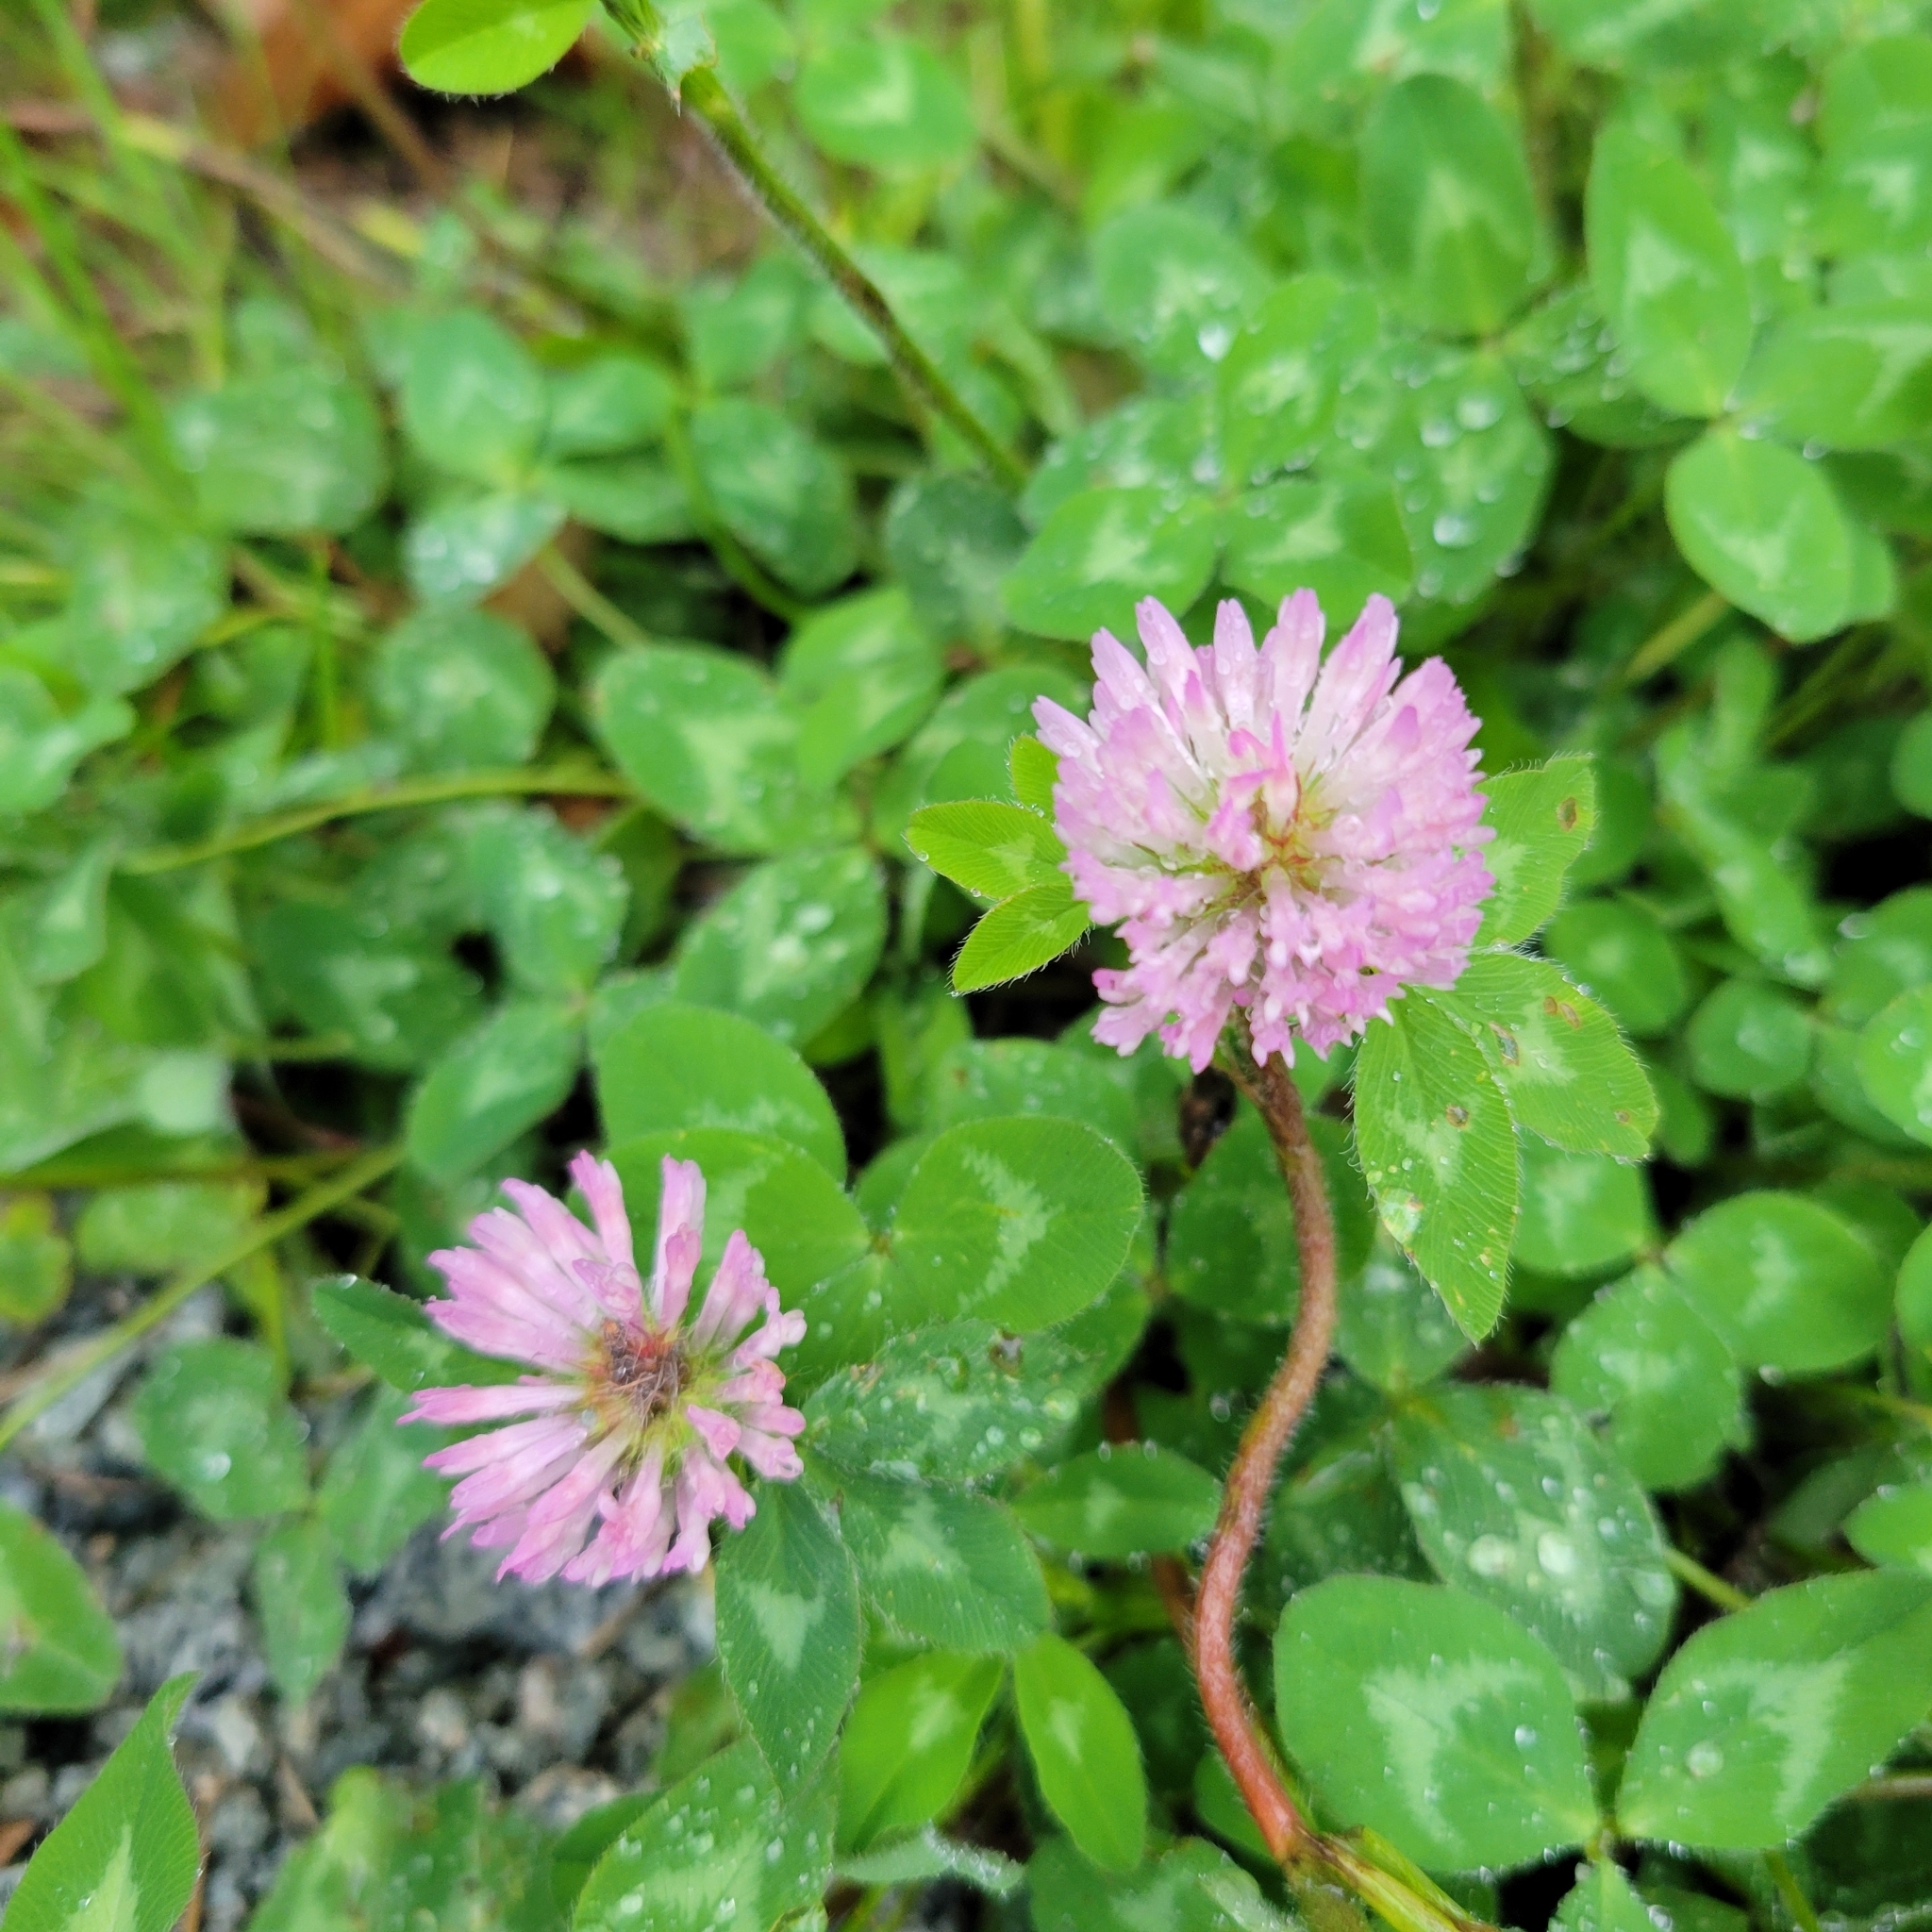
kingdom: Plantae
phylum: Tracheophyta
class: Magnoliopsida
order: Fabales
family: Fabaceae
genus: Trifolium
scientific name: Trifolium pratense
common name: Red clover
